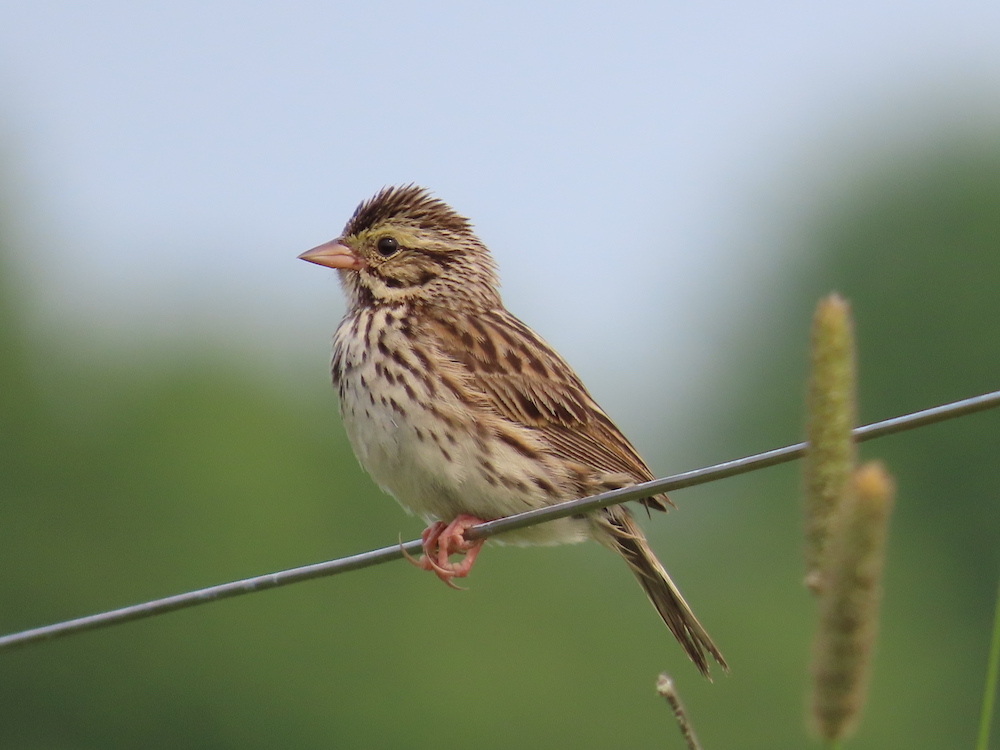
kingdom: Animalia
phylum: Chordata
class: Aves
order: Passeriformes
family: Passerellidae
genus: Passerculus
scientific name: Passerculus sandwichensis
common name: Savannah sparrow
